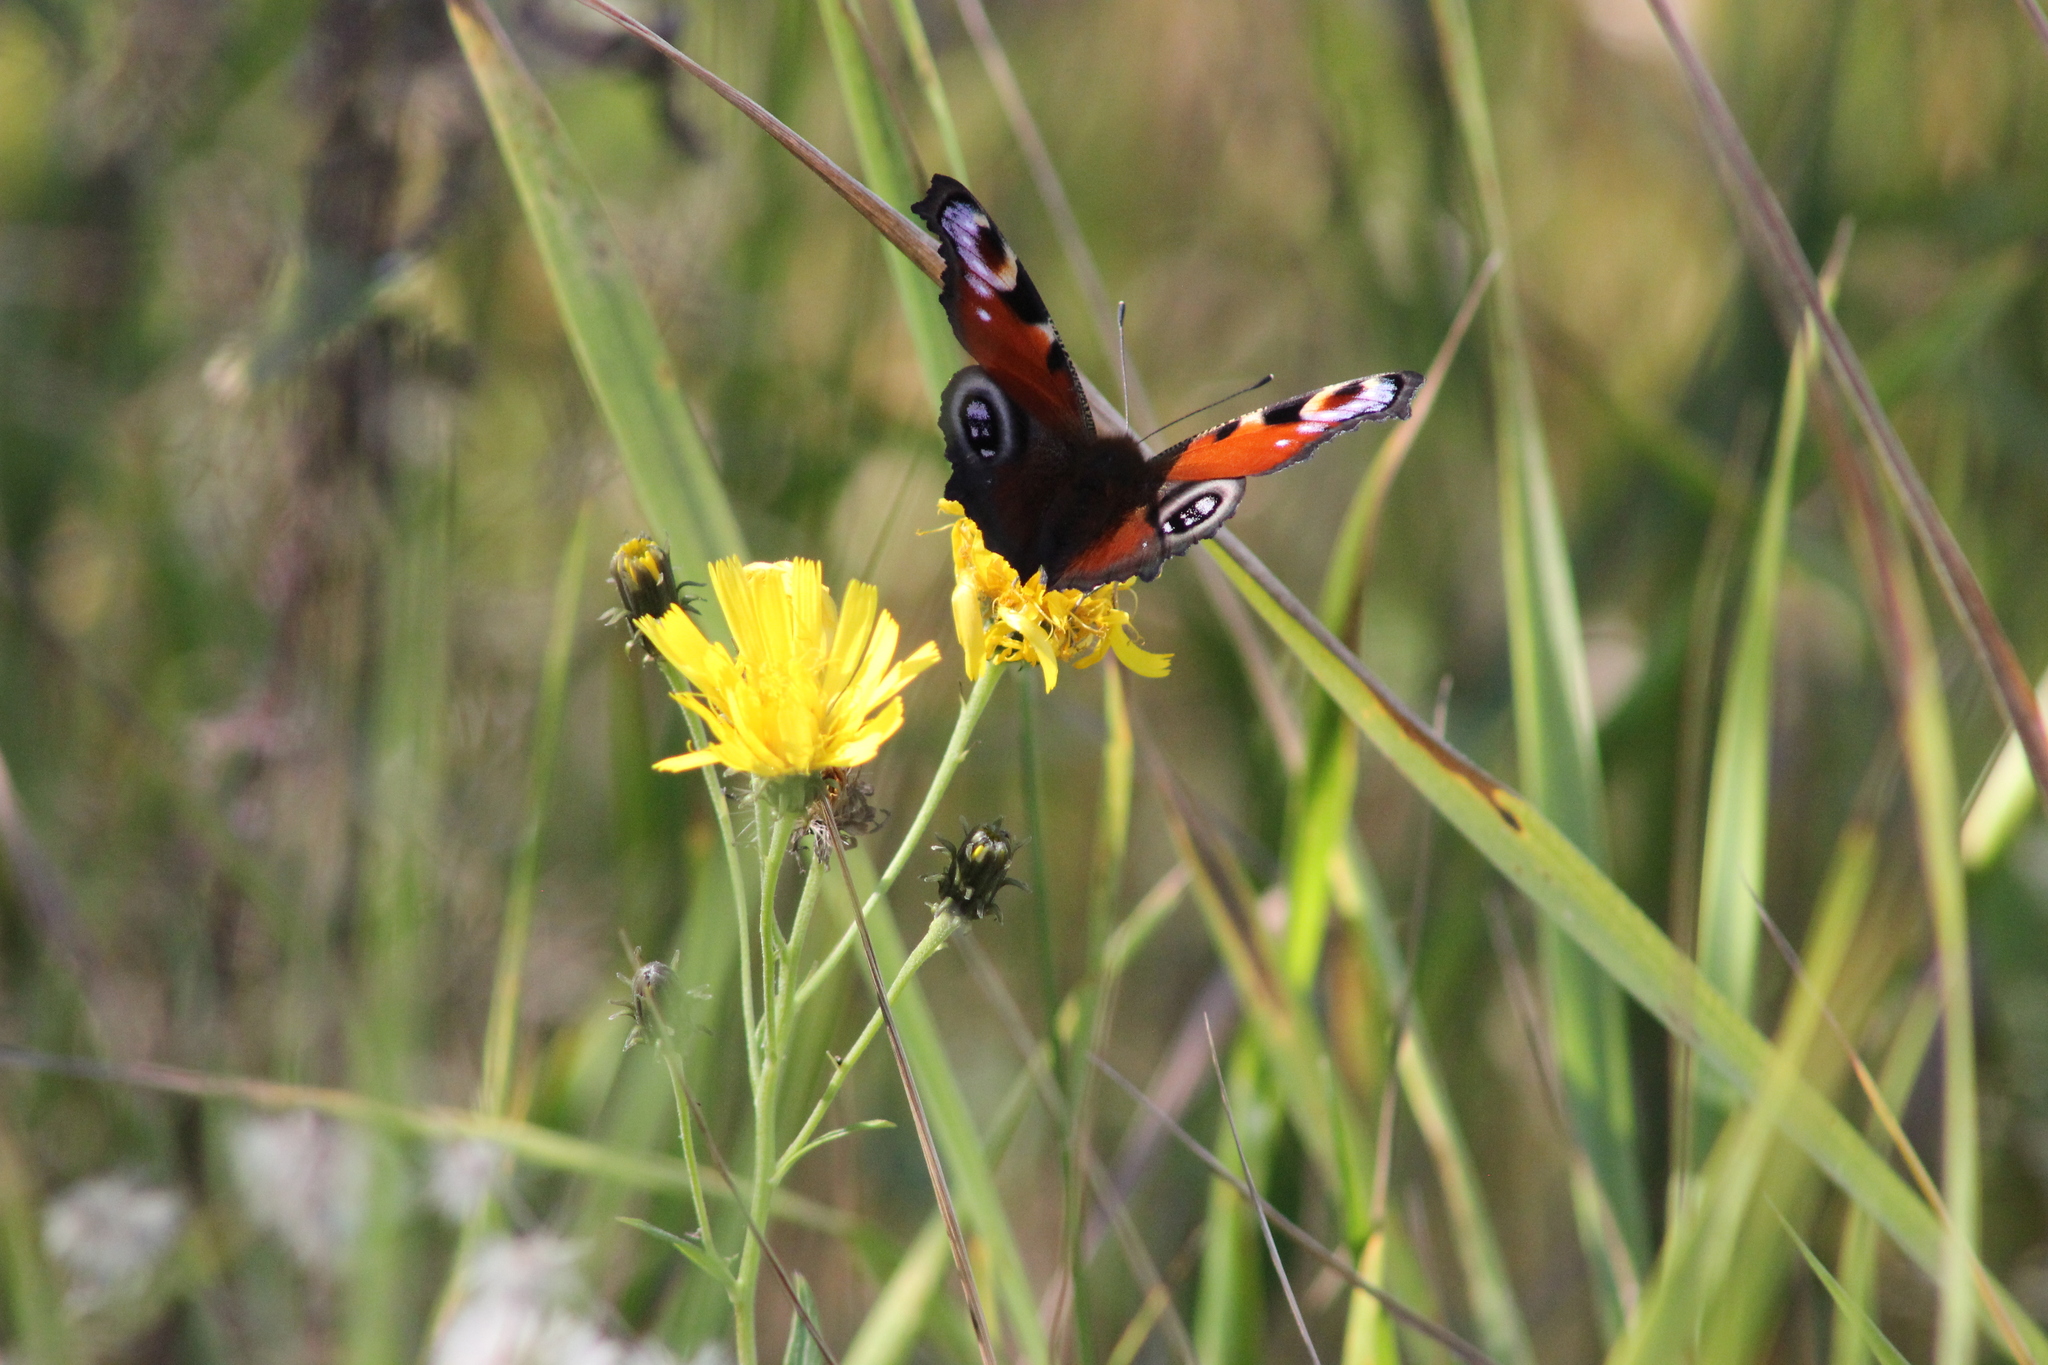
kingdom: Animalia
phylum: Arthropoda
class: Insecta
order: Lepidoptera
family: Nymphalidae
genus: Aglais
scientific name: Aglais io
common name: Peacock
